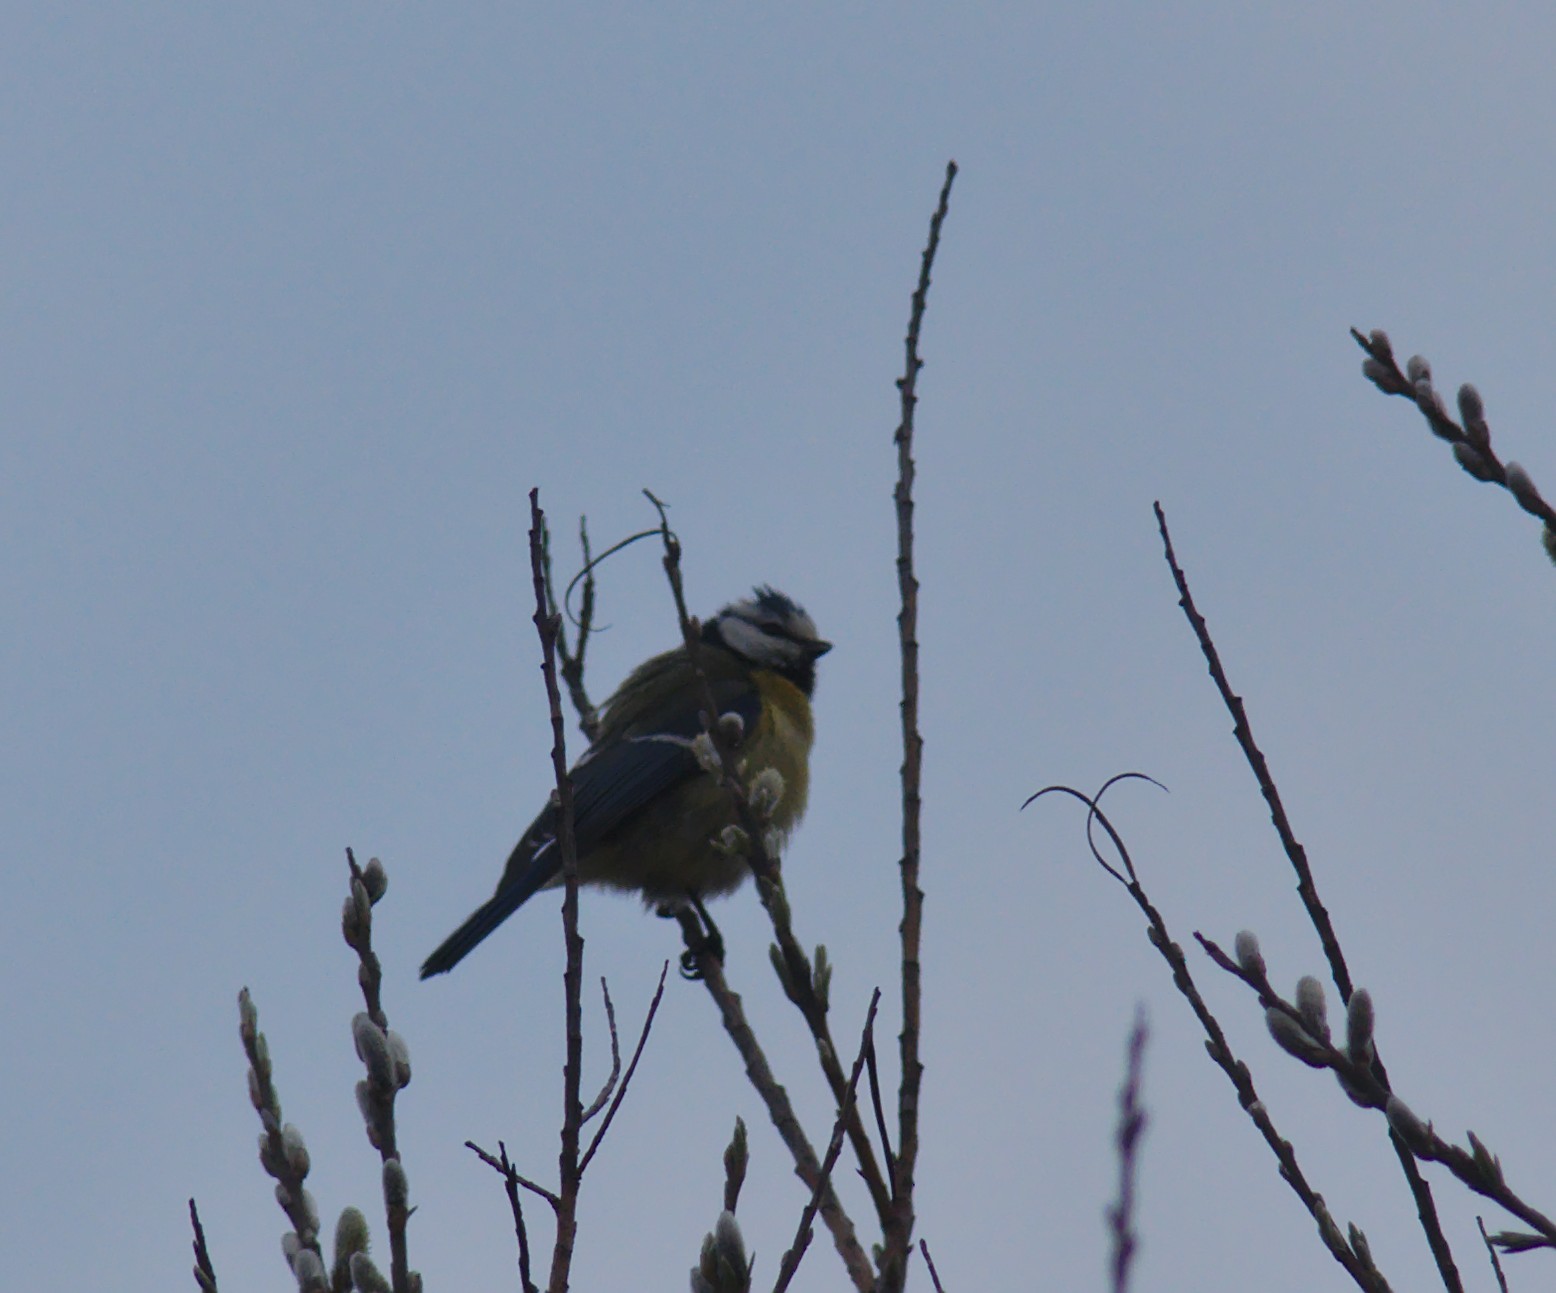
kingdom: Animalia
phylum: Chordata
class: Aves
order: Passeriformes
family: Paridae
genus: Cyanistes
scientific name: Cyanistes caeruleus
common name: Eurasian blue tit
